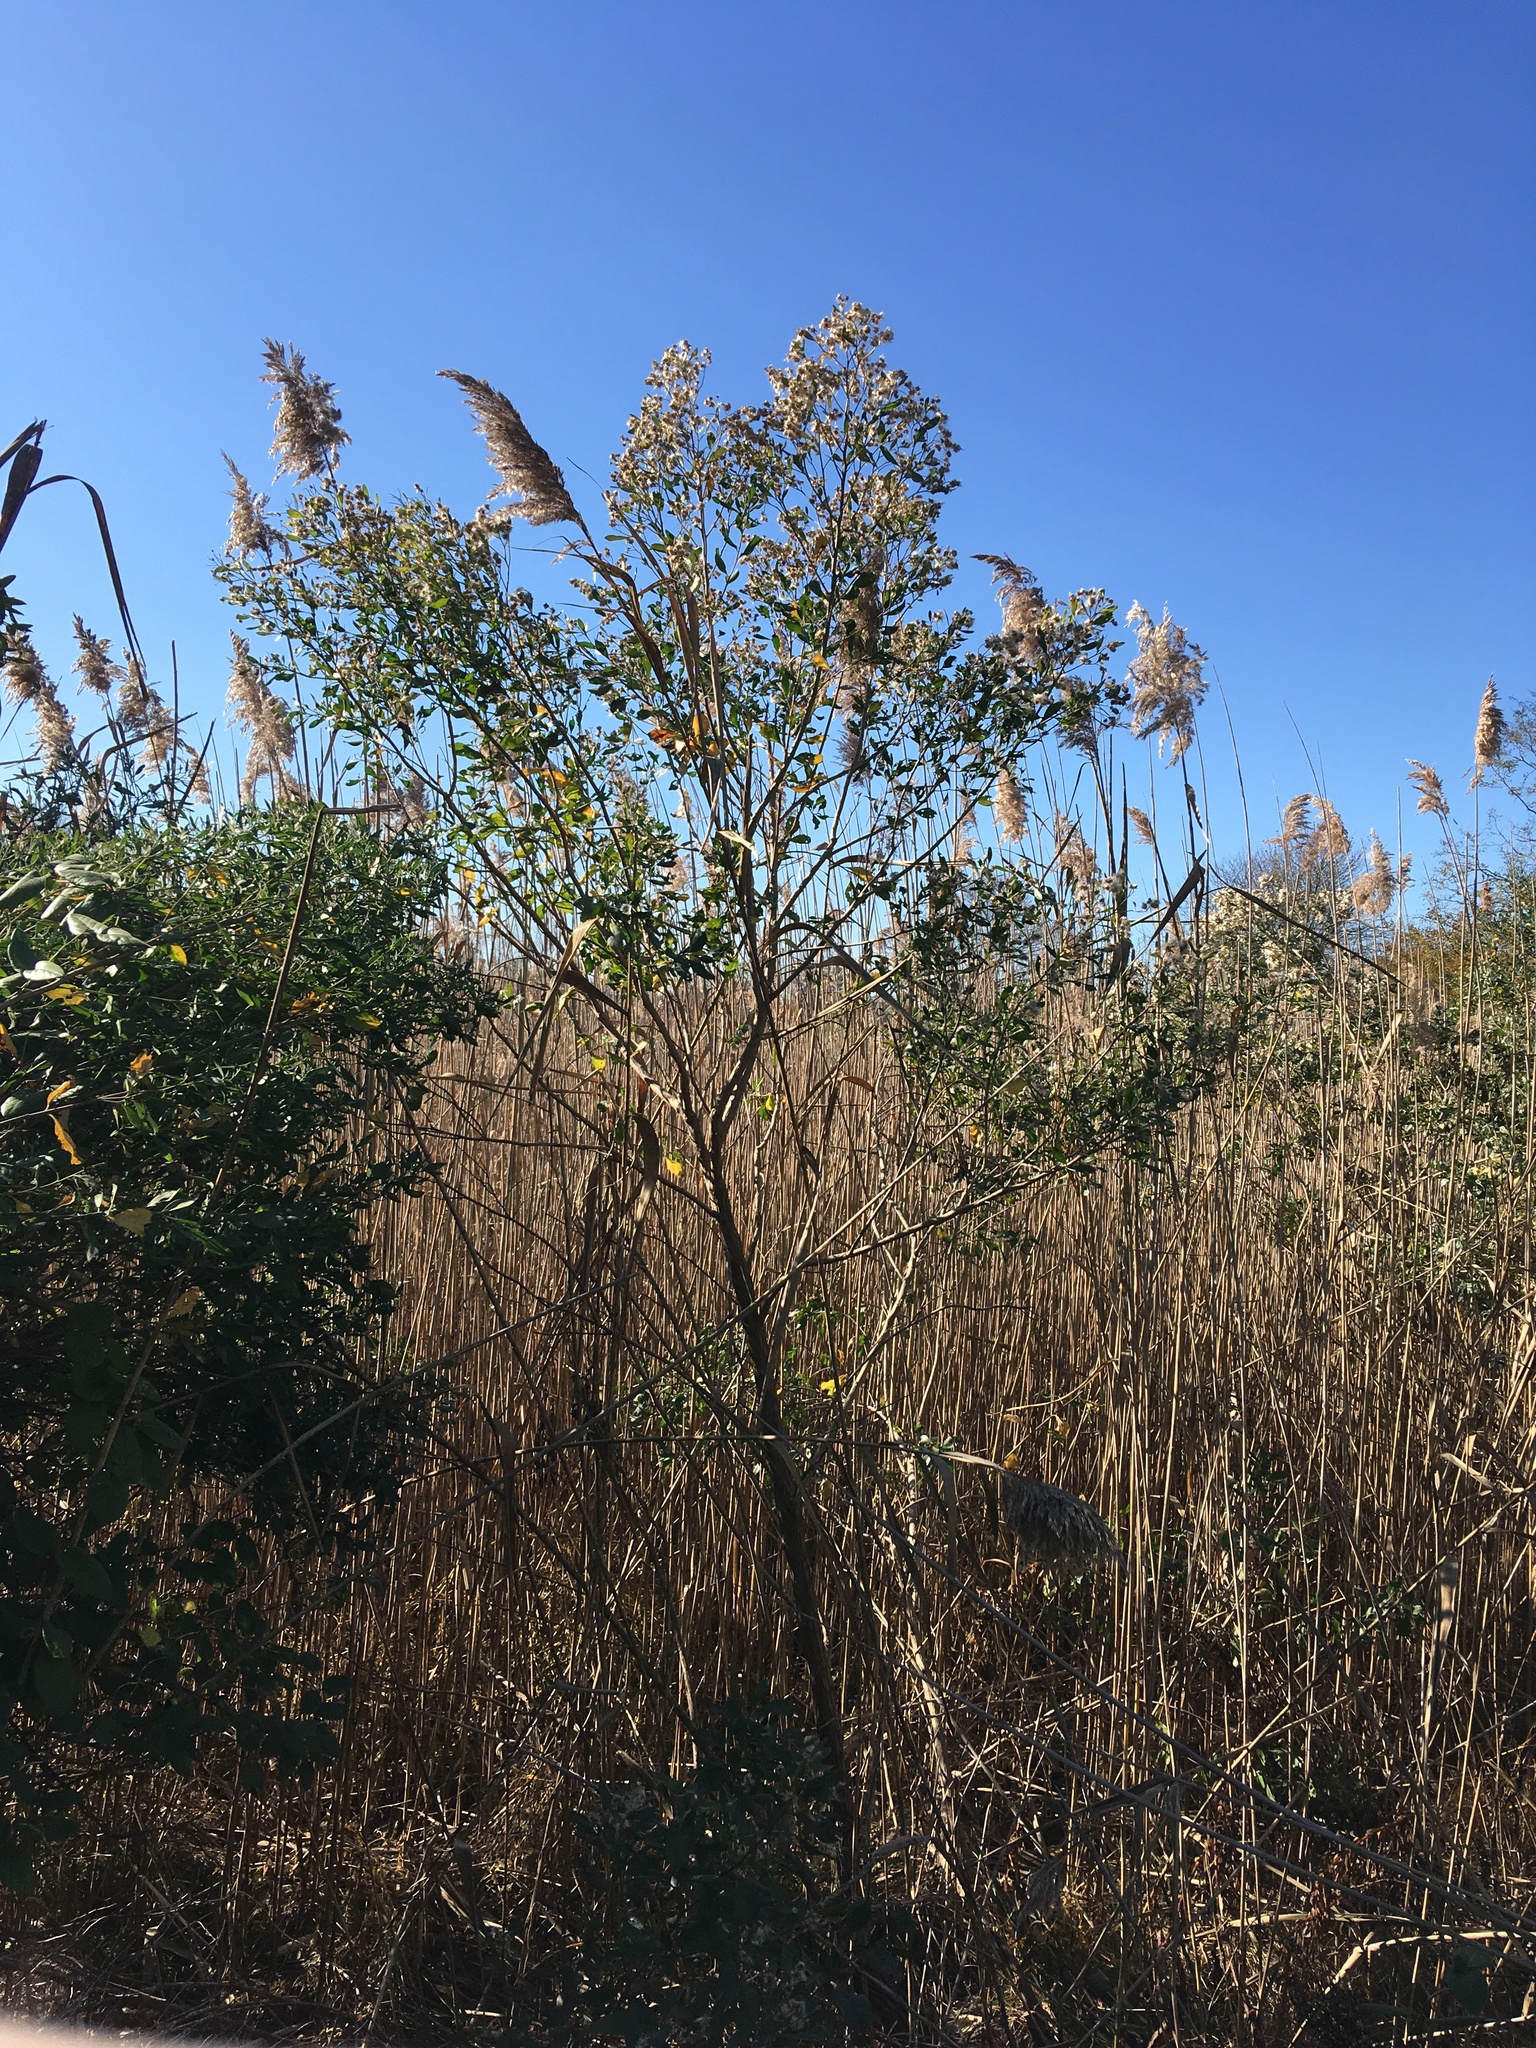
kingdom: Plantae
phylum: Tracheophyta
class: Magnoliopsida
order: Asterales
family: Asteraceae
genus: Baccharis
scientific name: Baccharis halimifolia
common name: Eastern baccharis
